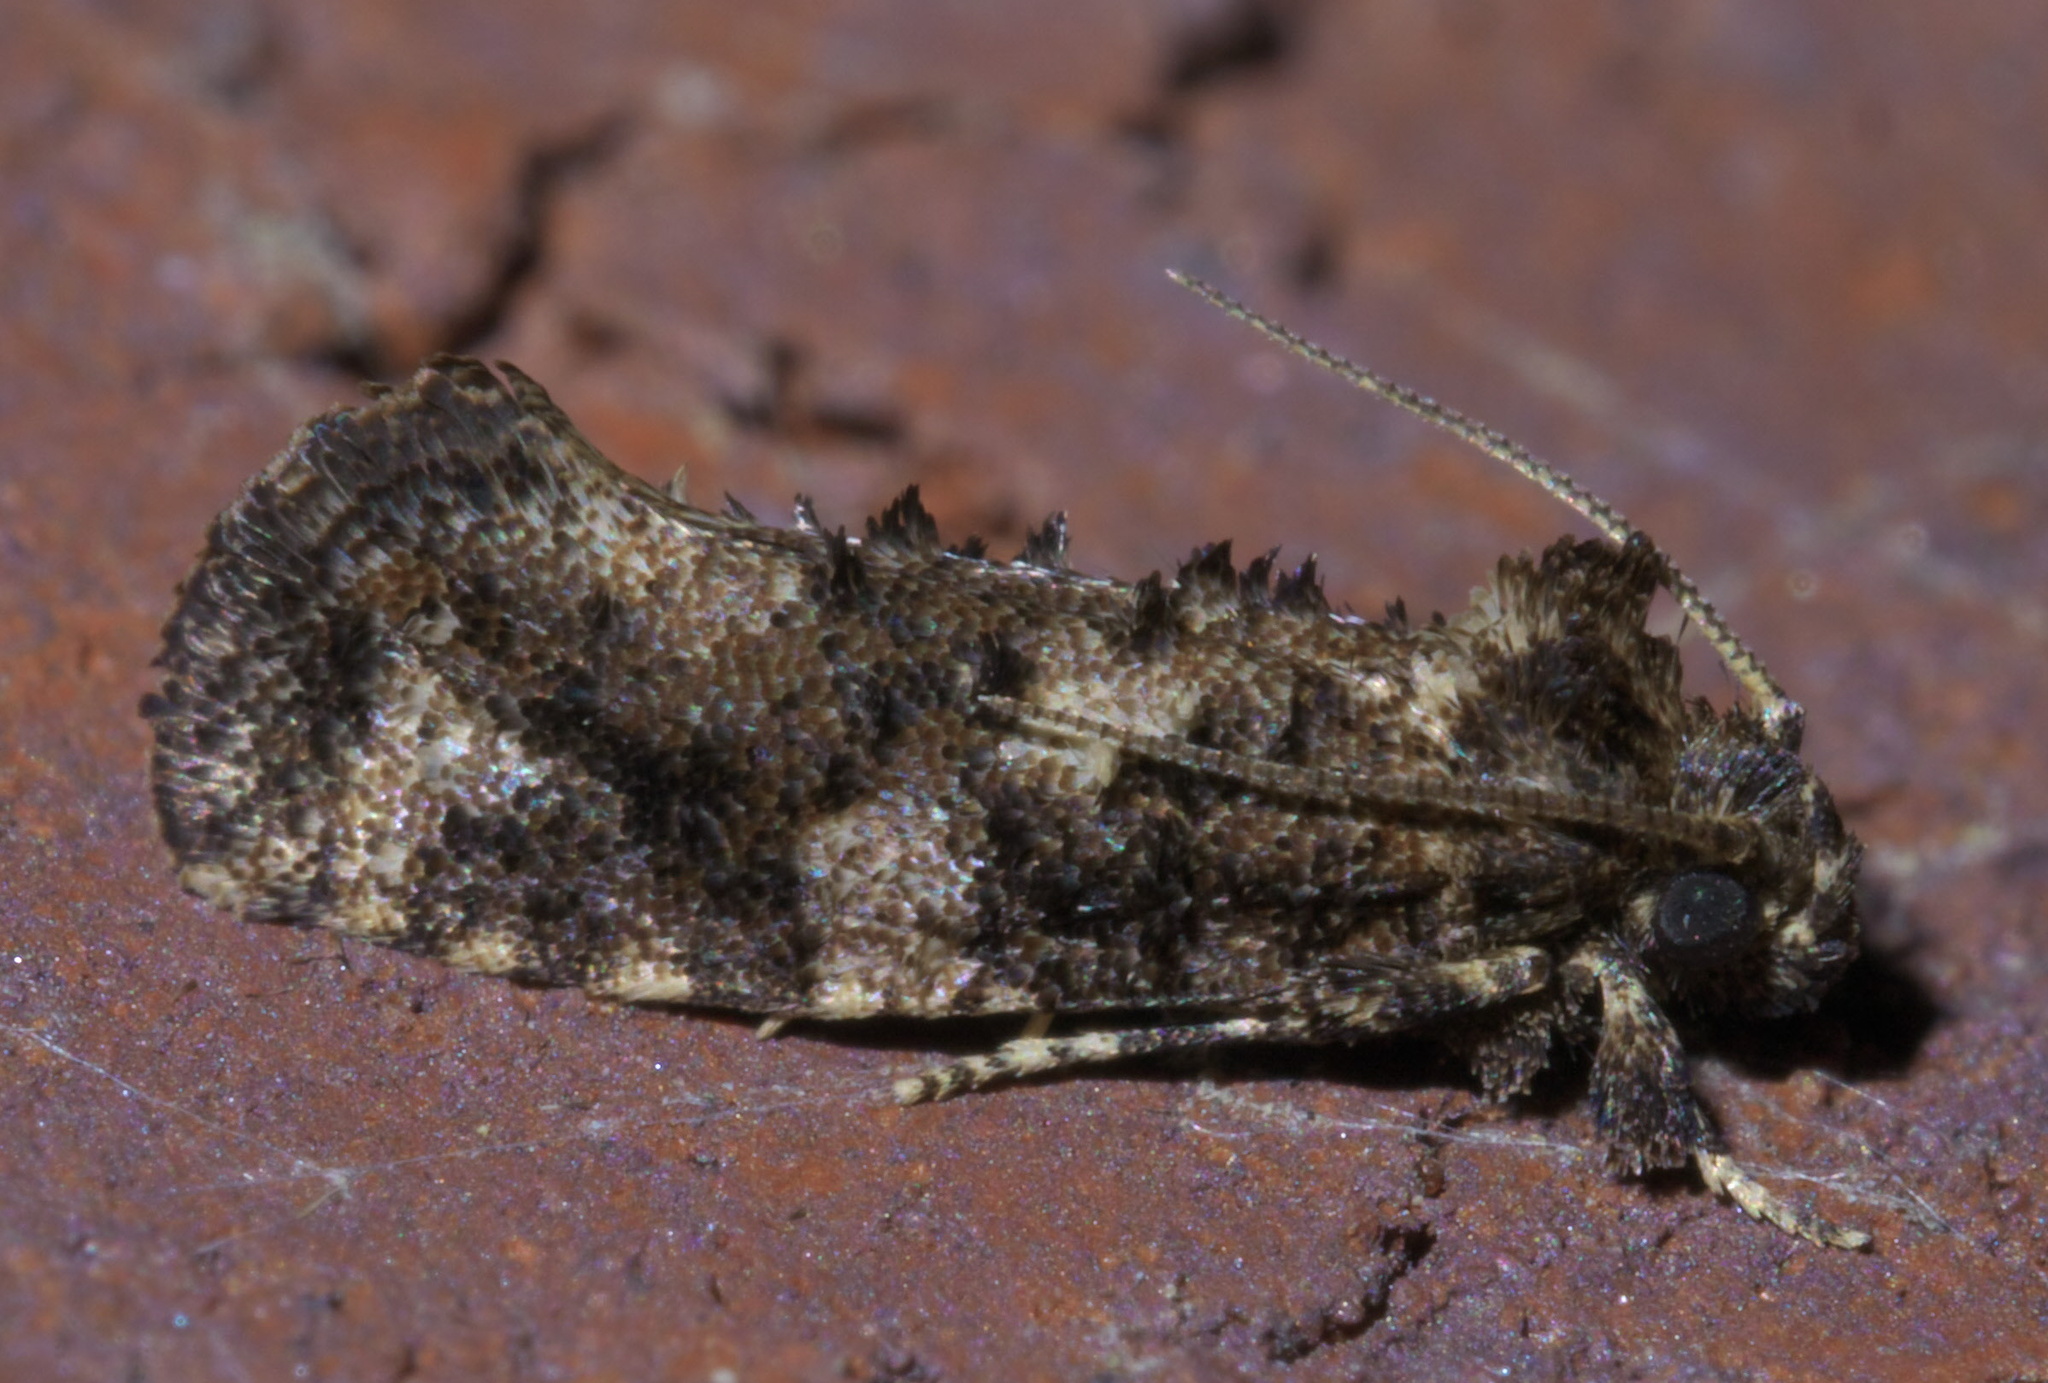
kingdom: Animalia
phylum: Arthropoda
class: Insecta
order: Lepidoptera
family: Tineidae
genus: Acrolophus
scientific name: Acrolophus cressoni
